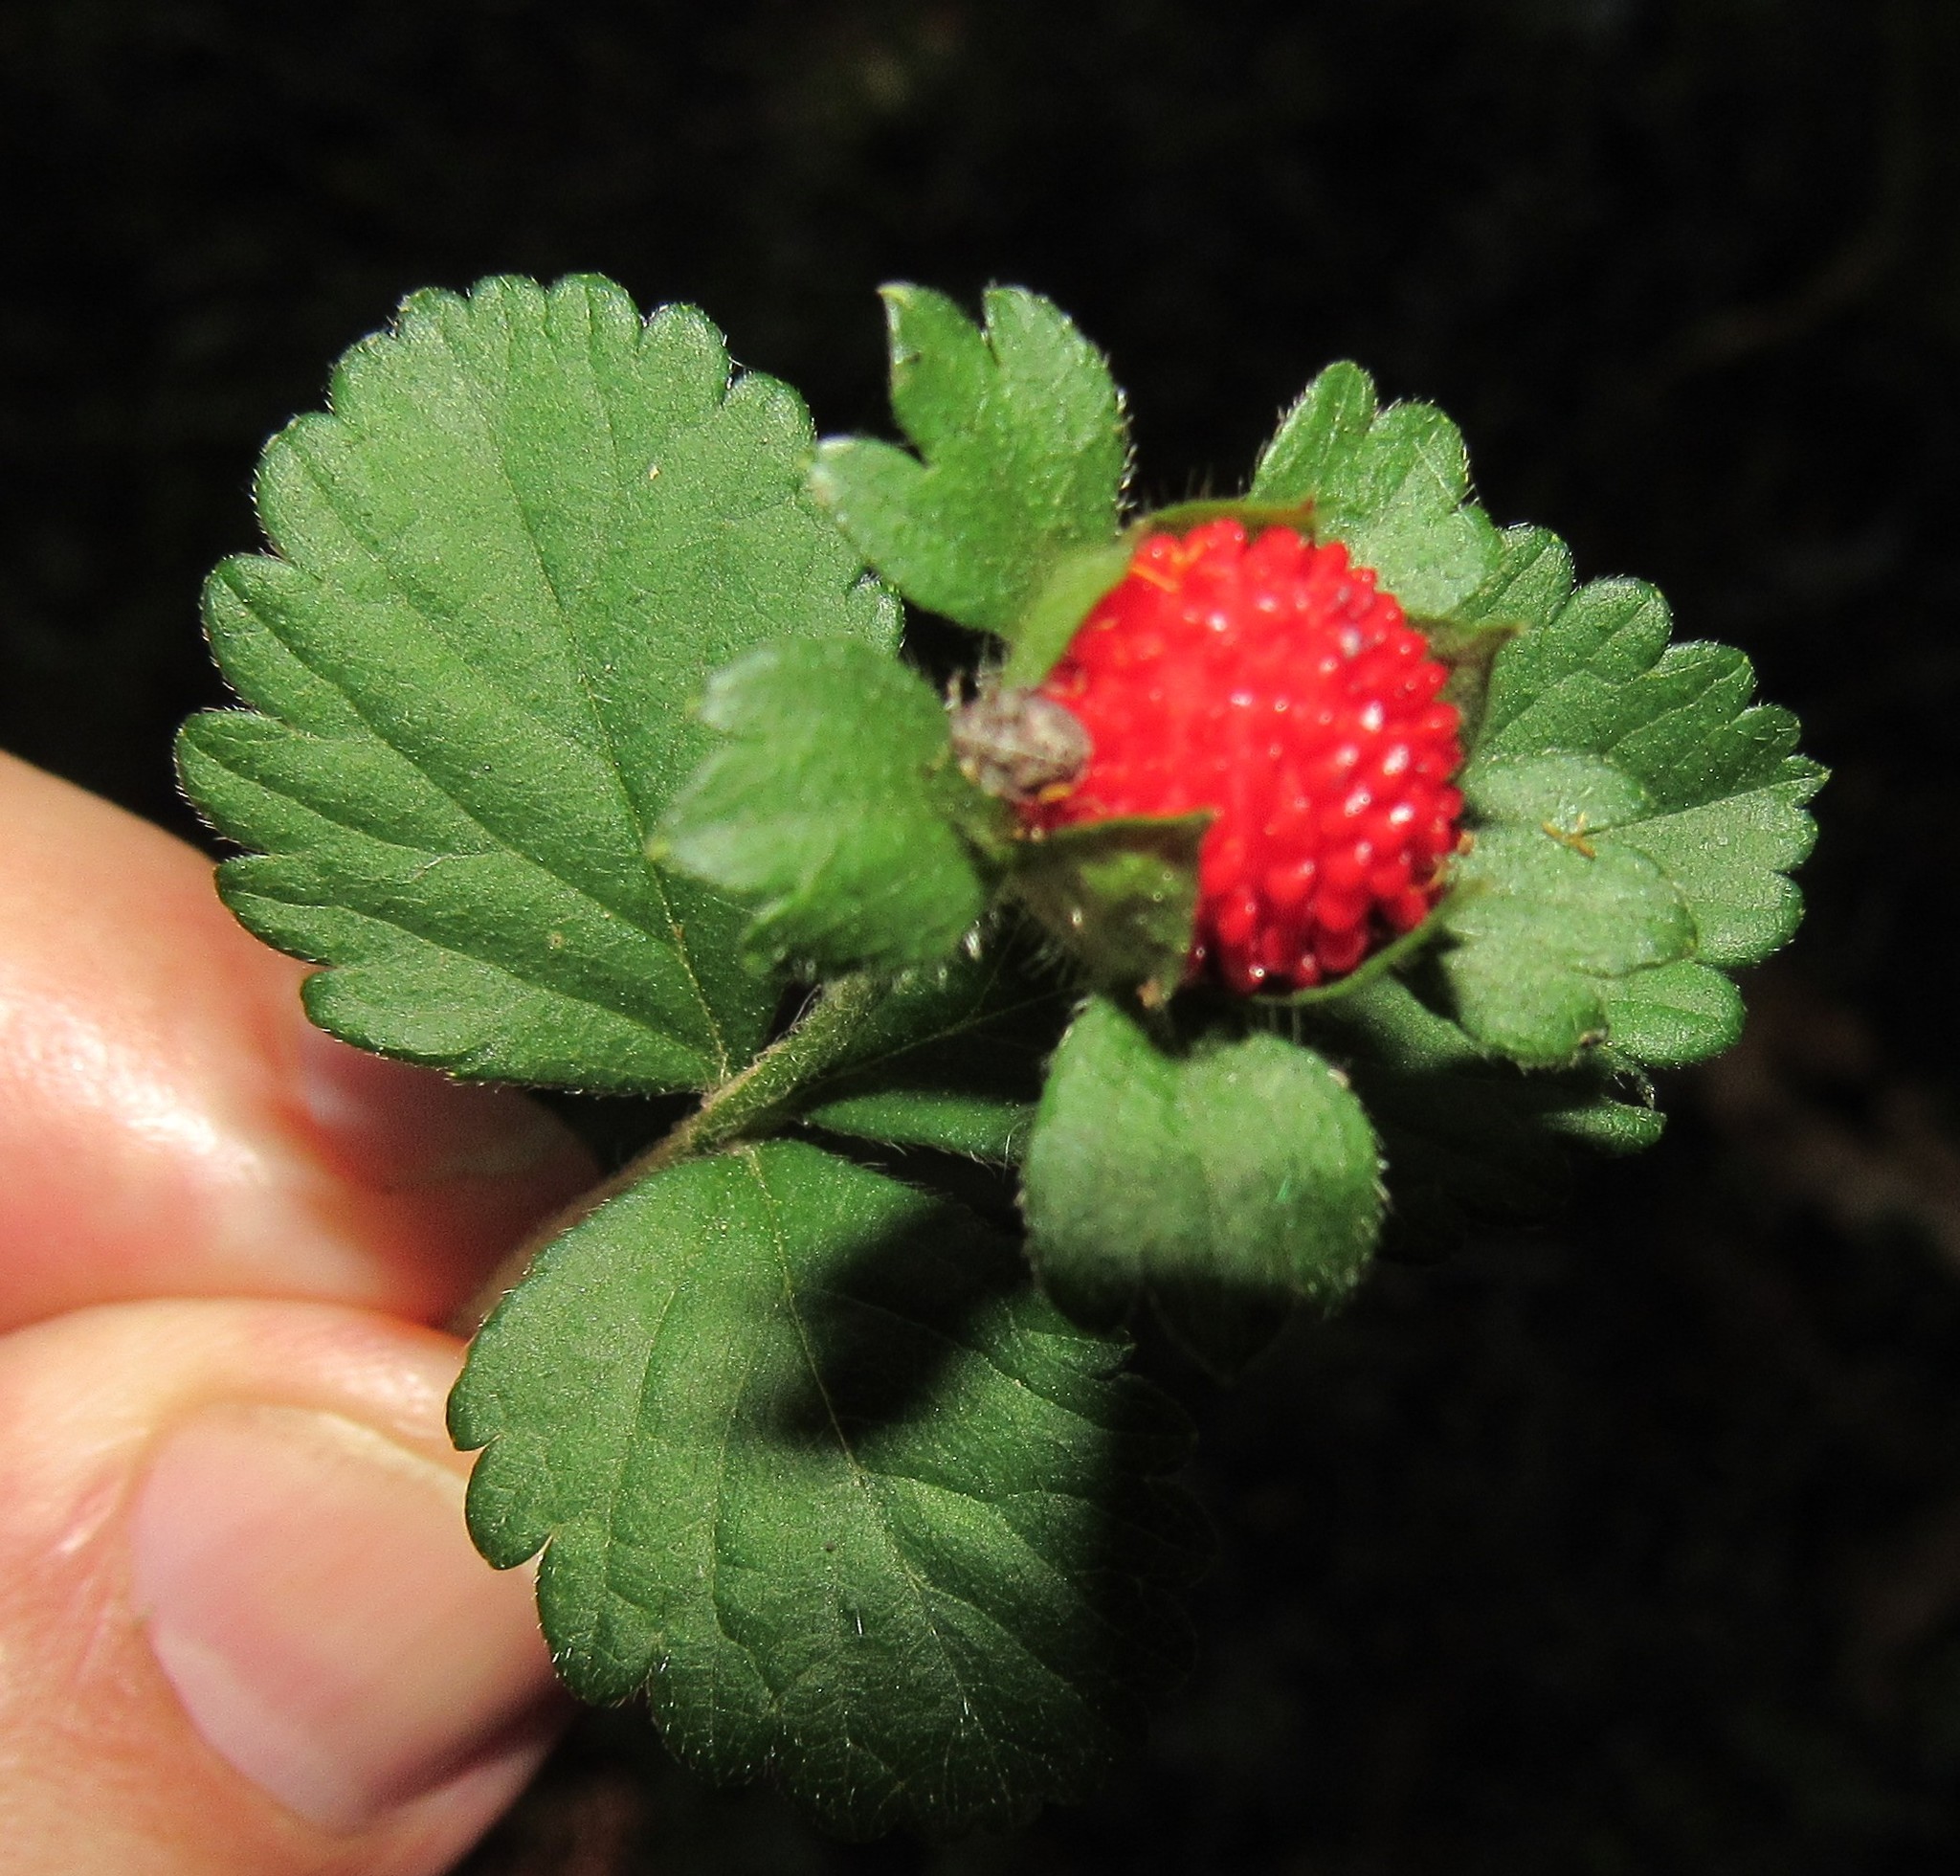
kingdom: Plantae
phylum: Tracheophyta
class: Magnoliopsida
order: Rosales
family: Rosaceae
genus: Potentilla
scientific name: Potentilla indica
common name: Yellow-flowered strawberry
